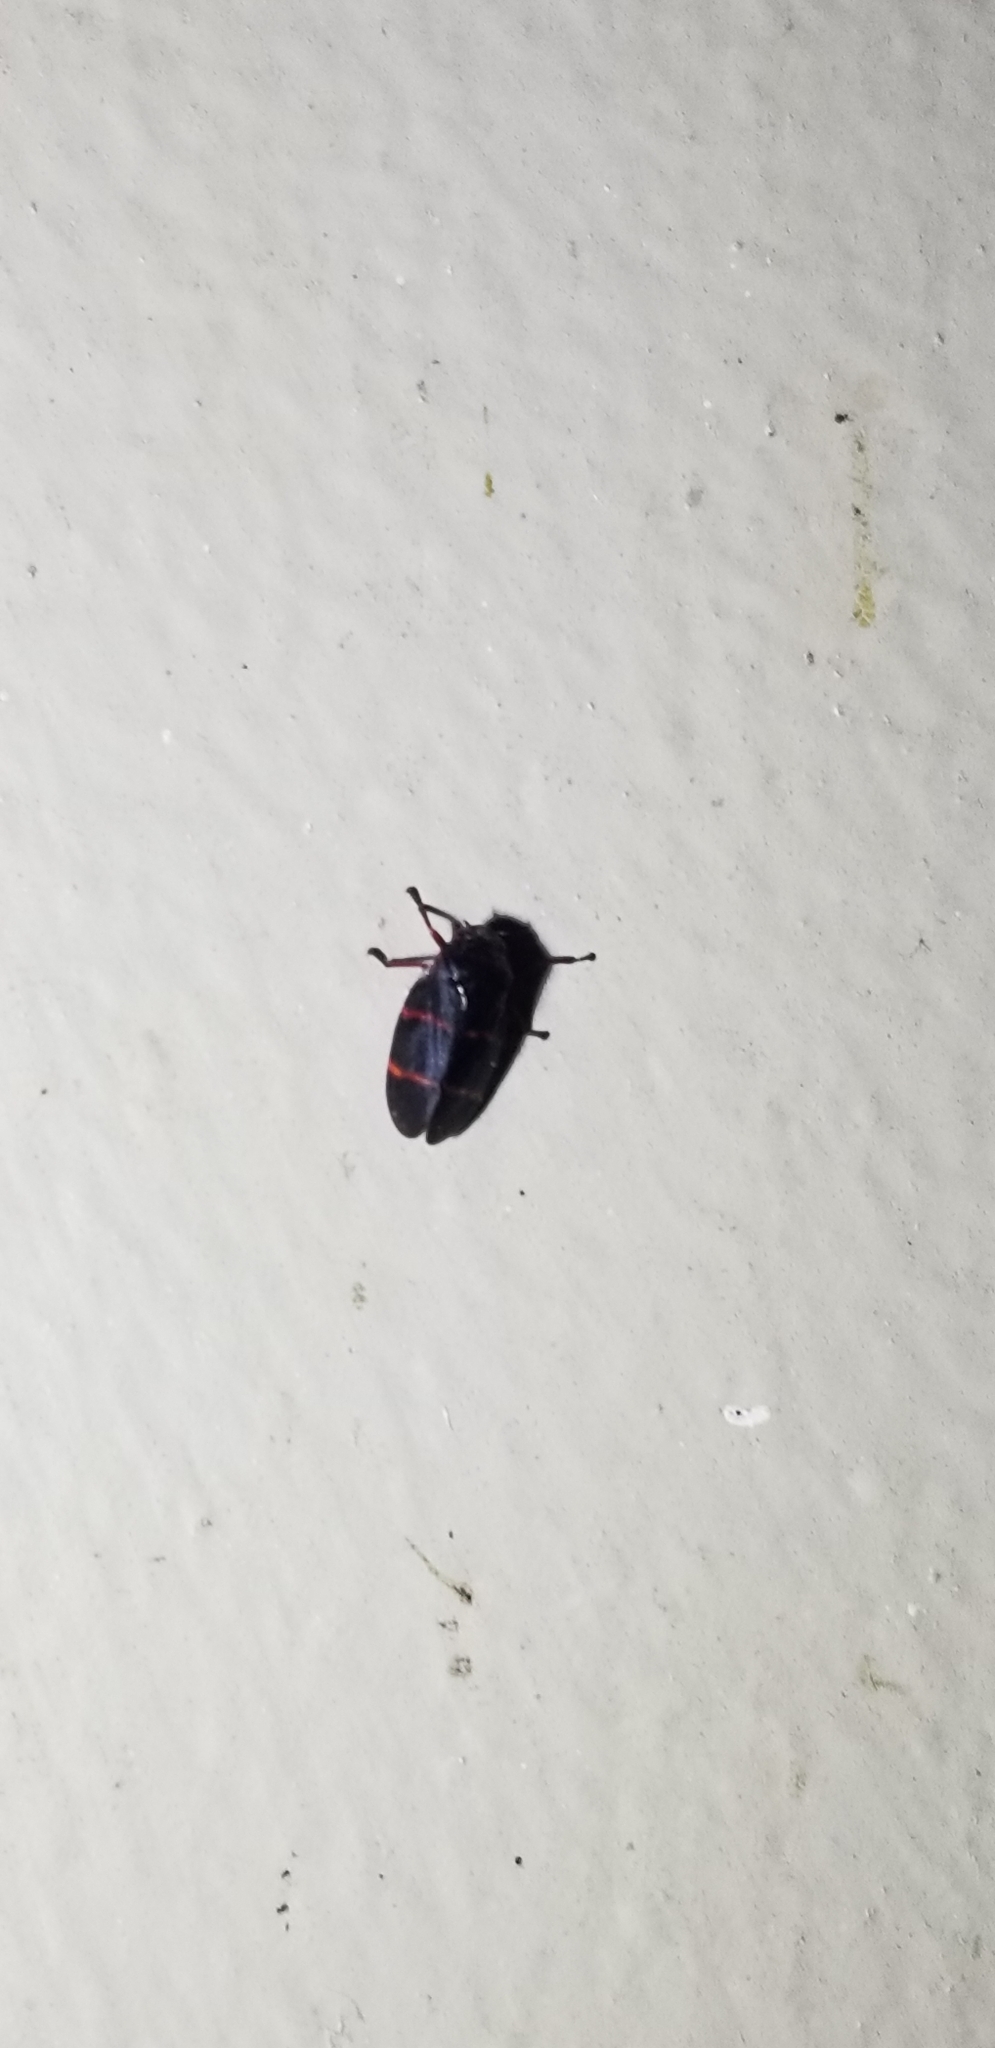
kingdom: Animalia
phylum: Arthropoda
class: Insecta
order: Hemiptera
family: Cercopidae
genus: Prosapia
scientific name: Prosapia bicincta
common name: Twolined spittlebug
